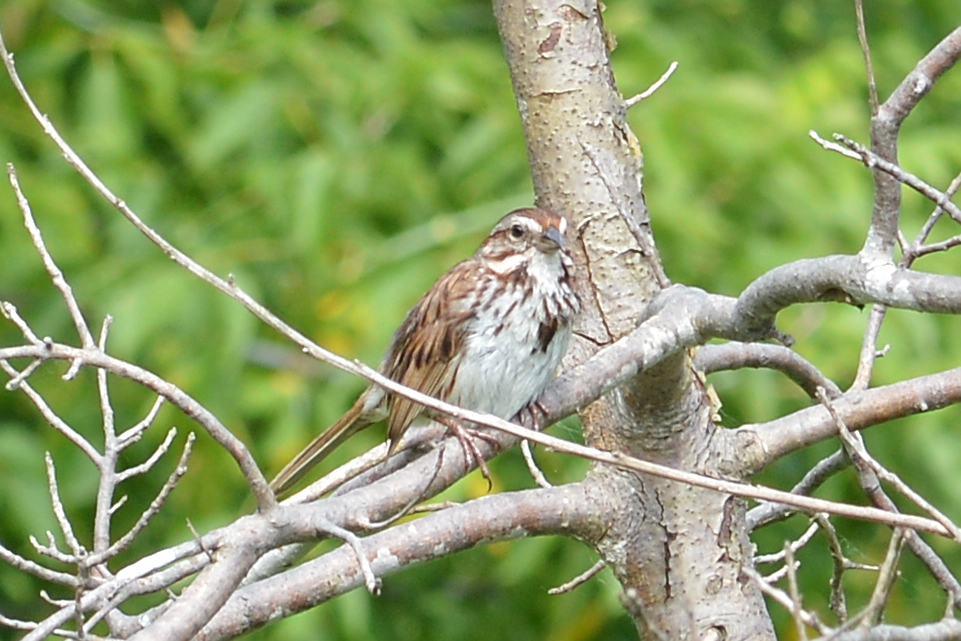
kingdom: Animalia
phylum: Chordata
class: Aves
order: Passeriformes
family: Passerellidae
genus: Melospiza
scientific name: Melospiza melodia
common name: Song sparrow
